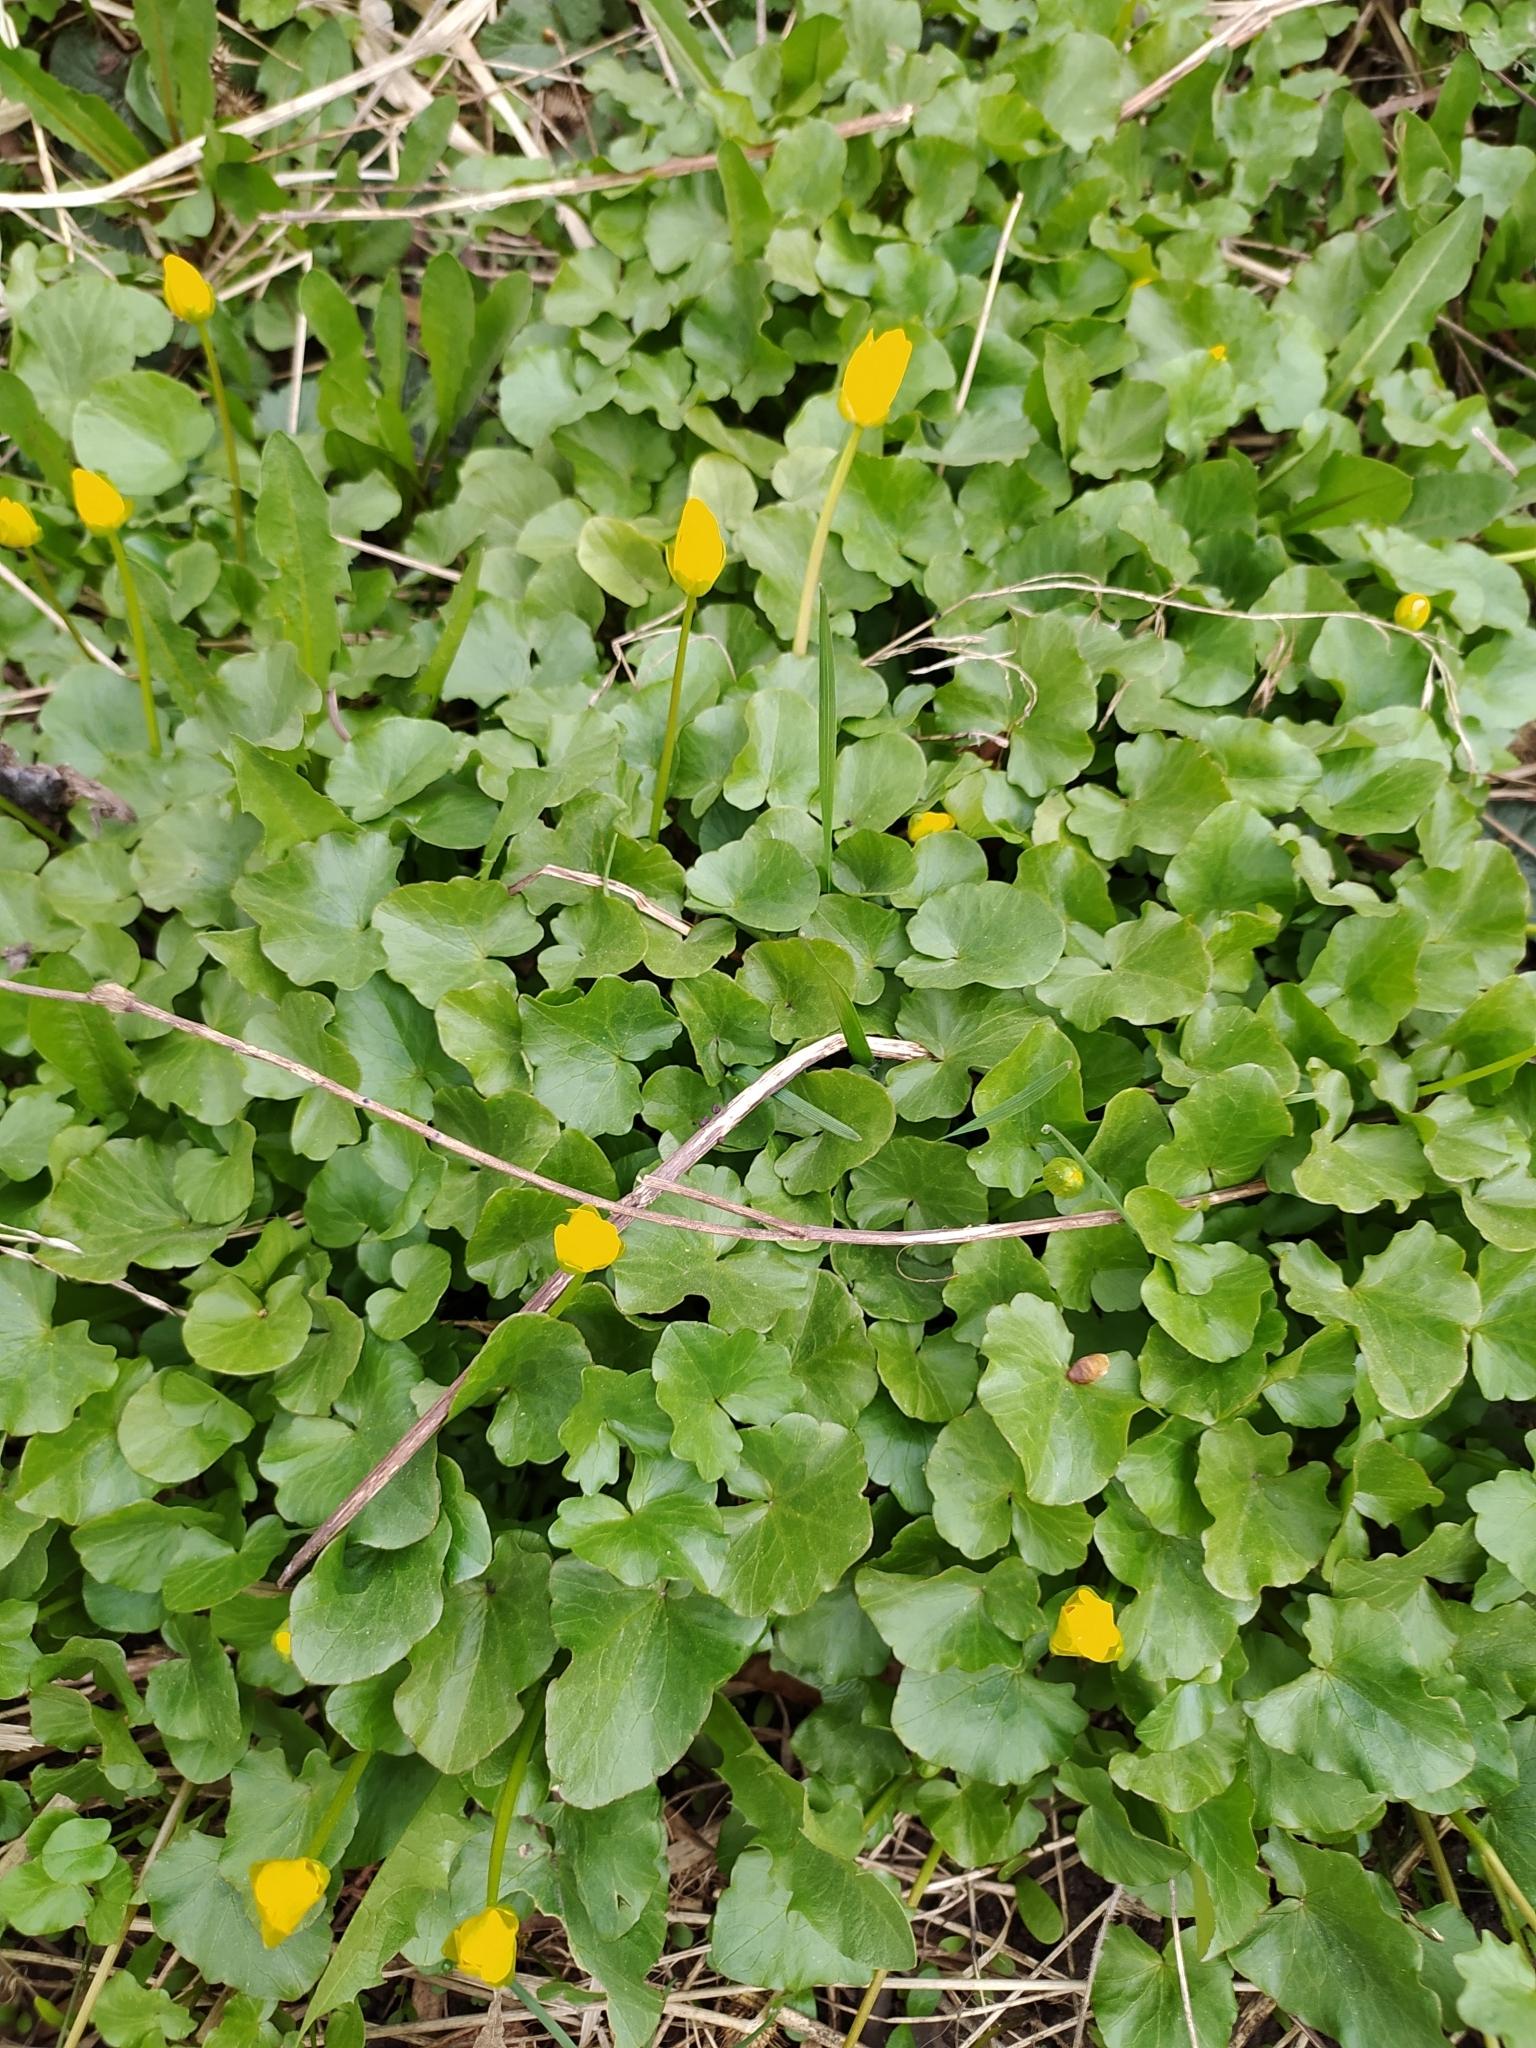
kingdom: Plantae
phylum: Tracheophyta
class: Magnoliopsida
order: Ranunculales
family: Ranunculaceae
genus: Ficaria
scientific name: Ficaria verna
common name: Lesser celandine
